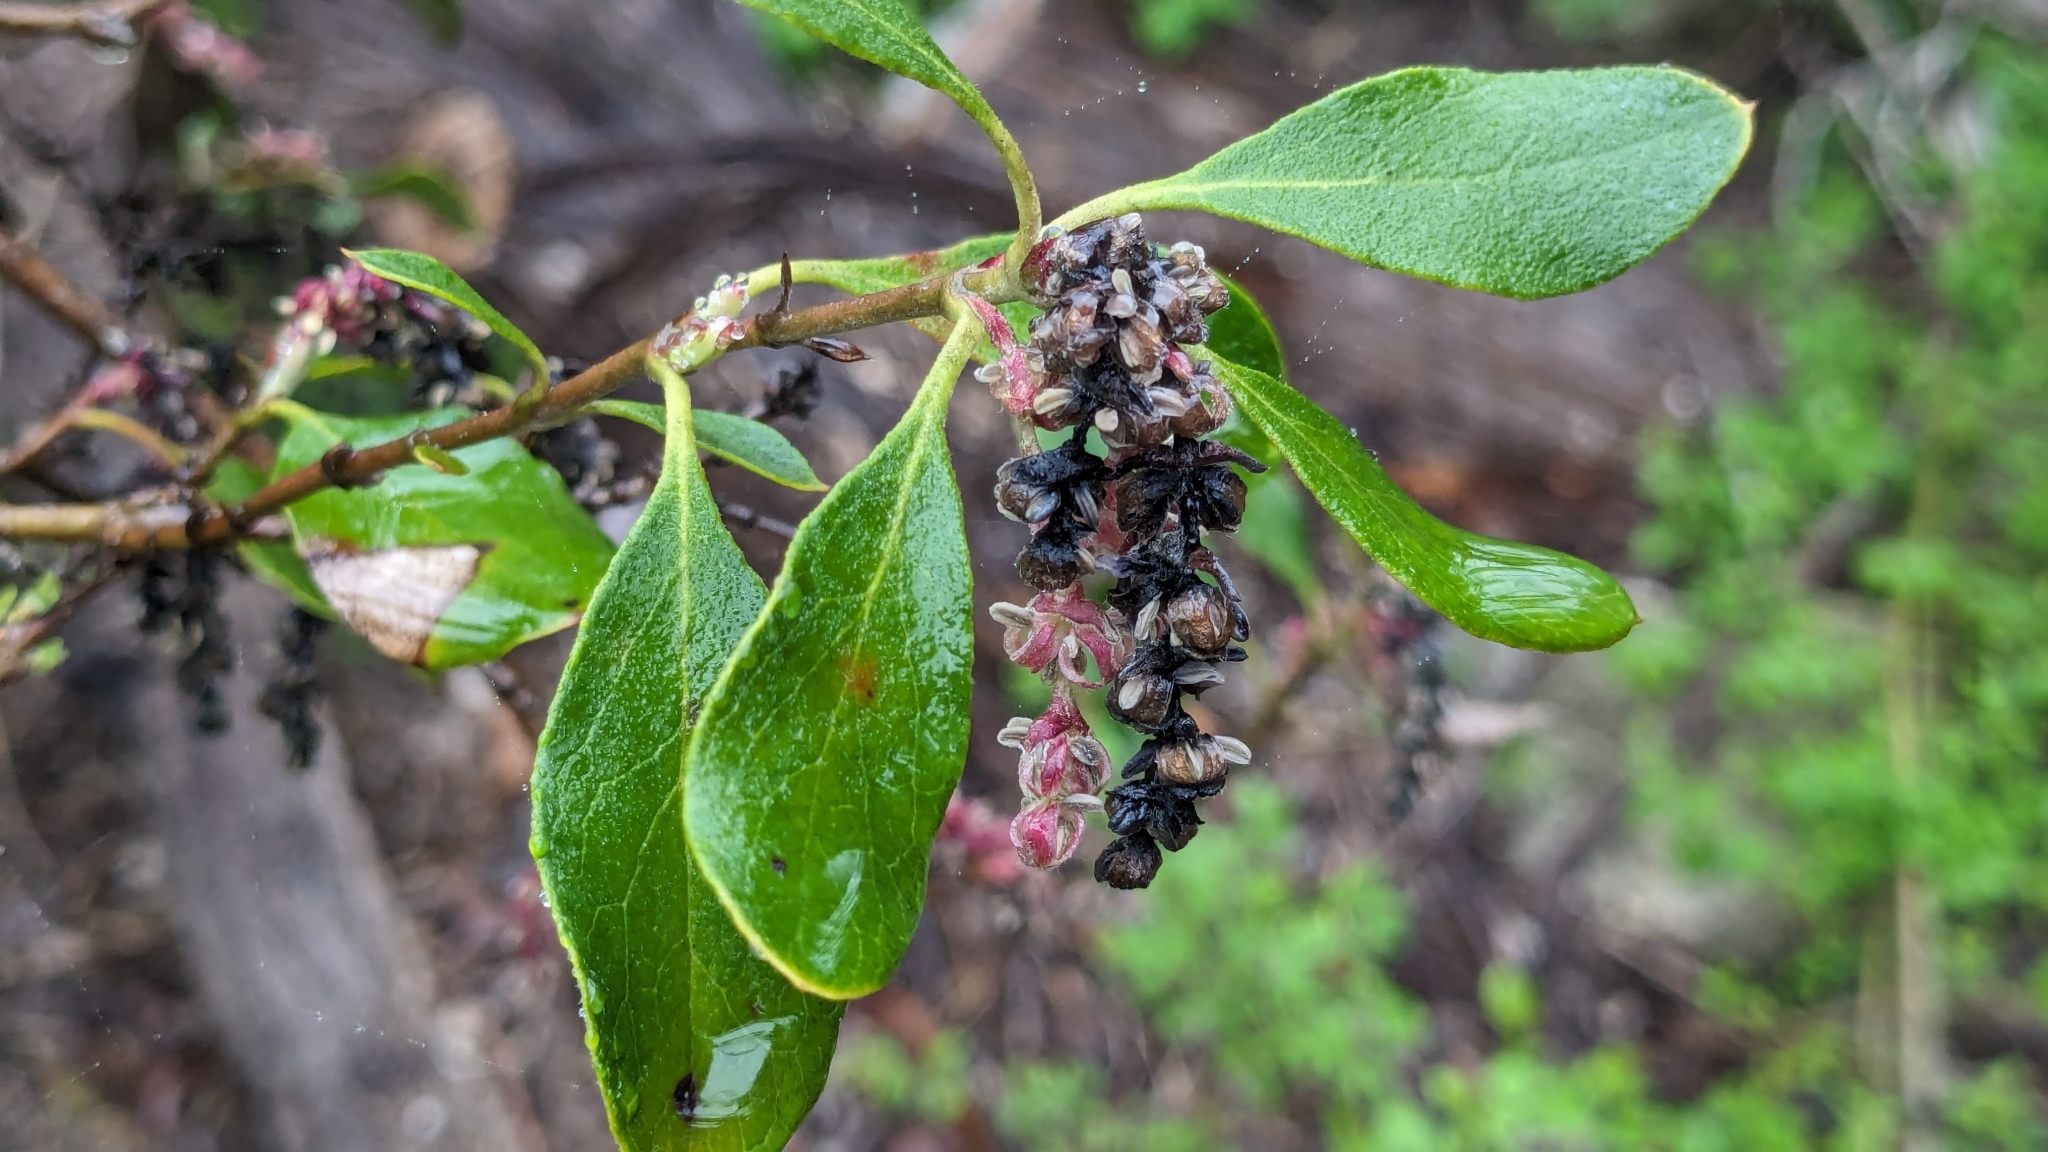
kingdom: Plantae
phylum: Tracheophyta
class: Magnoliopsida
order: Garryales
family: Garryaceae
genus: Garrya
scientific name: Garrya lindheimeri
